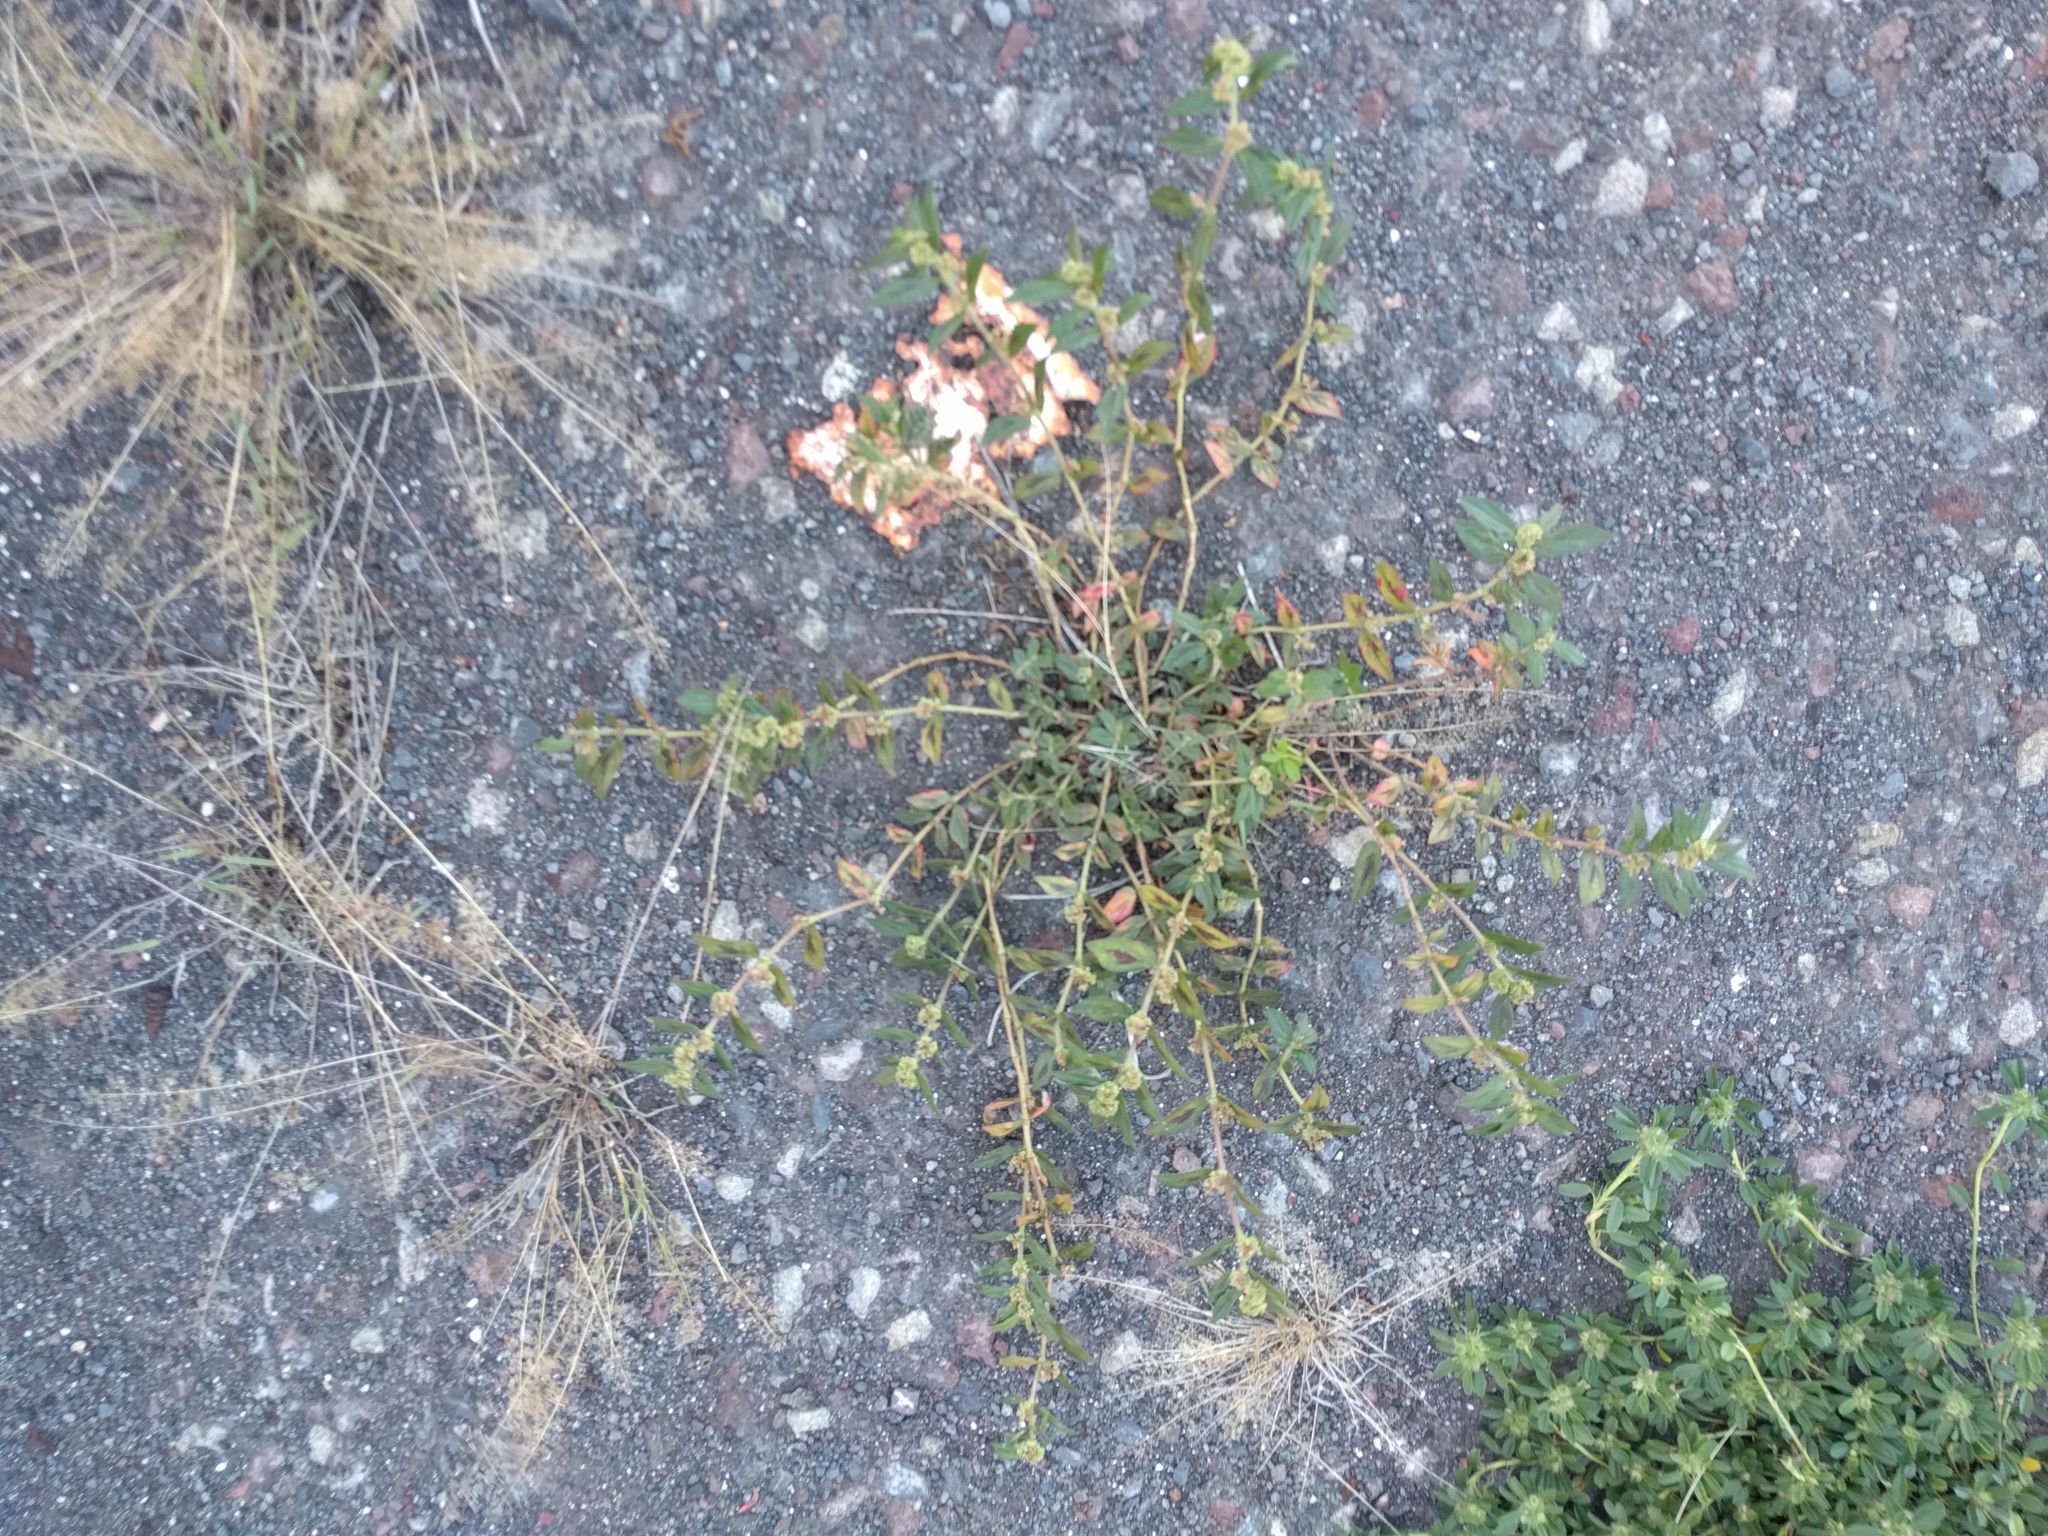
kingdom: Plantae
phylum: Tracheophyta
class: Magnoliopsida
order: Malpighiales
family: Euphorbiaceae
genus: Euphorbia
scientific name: Euphorbia hirta
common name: Pillpod sandmat
